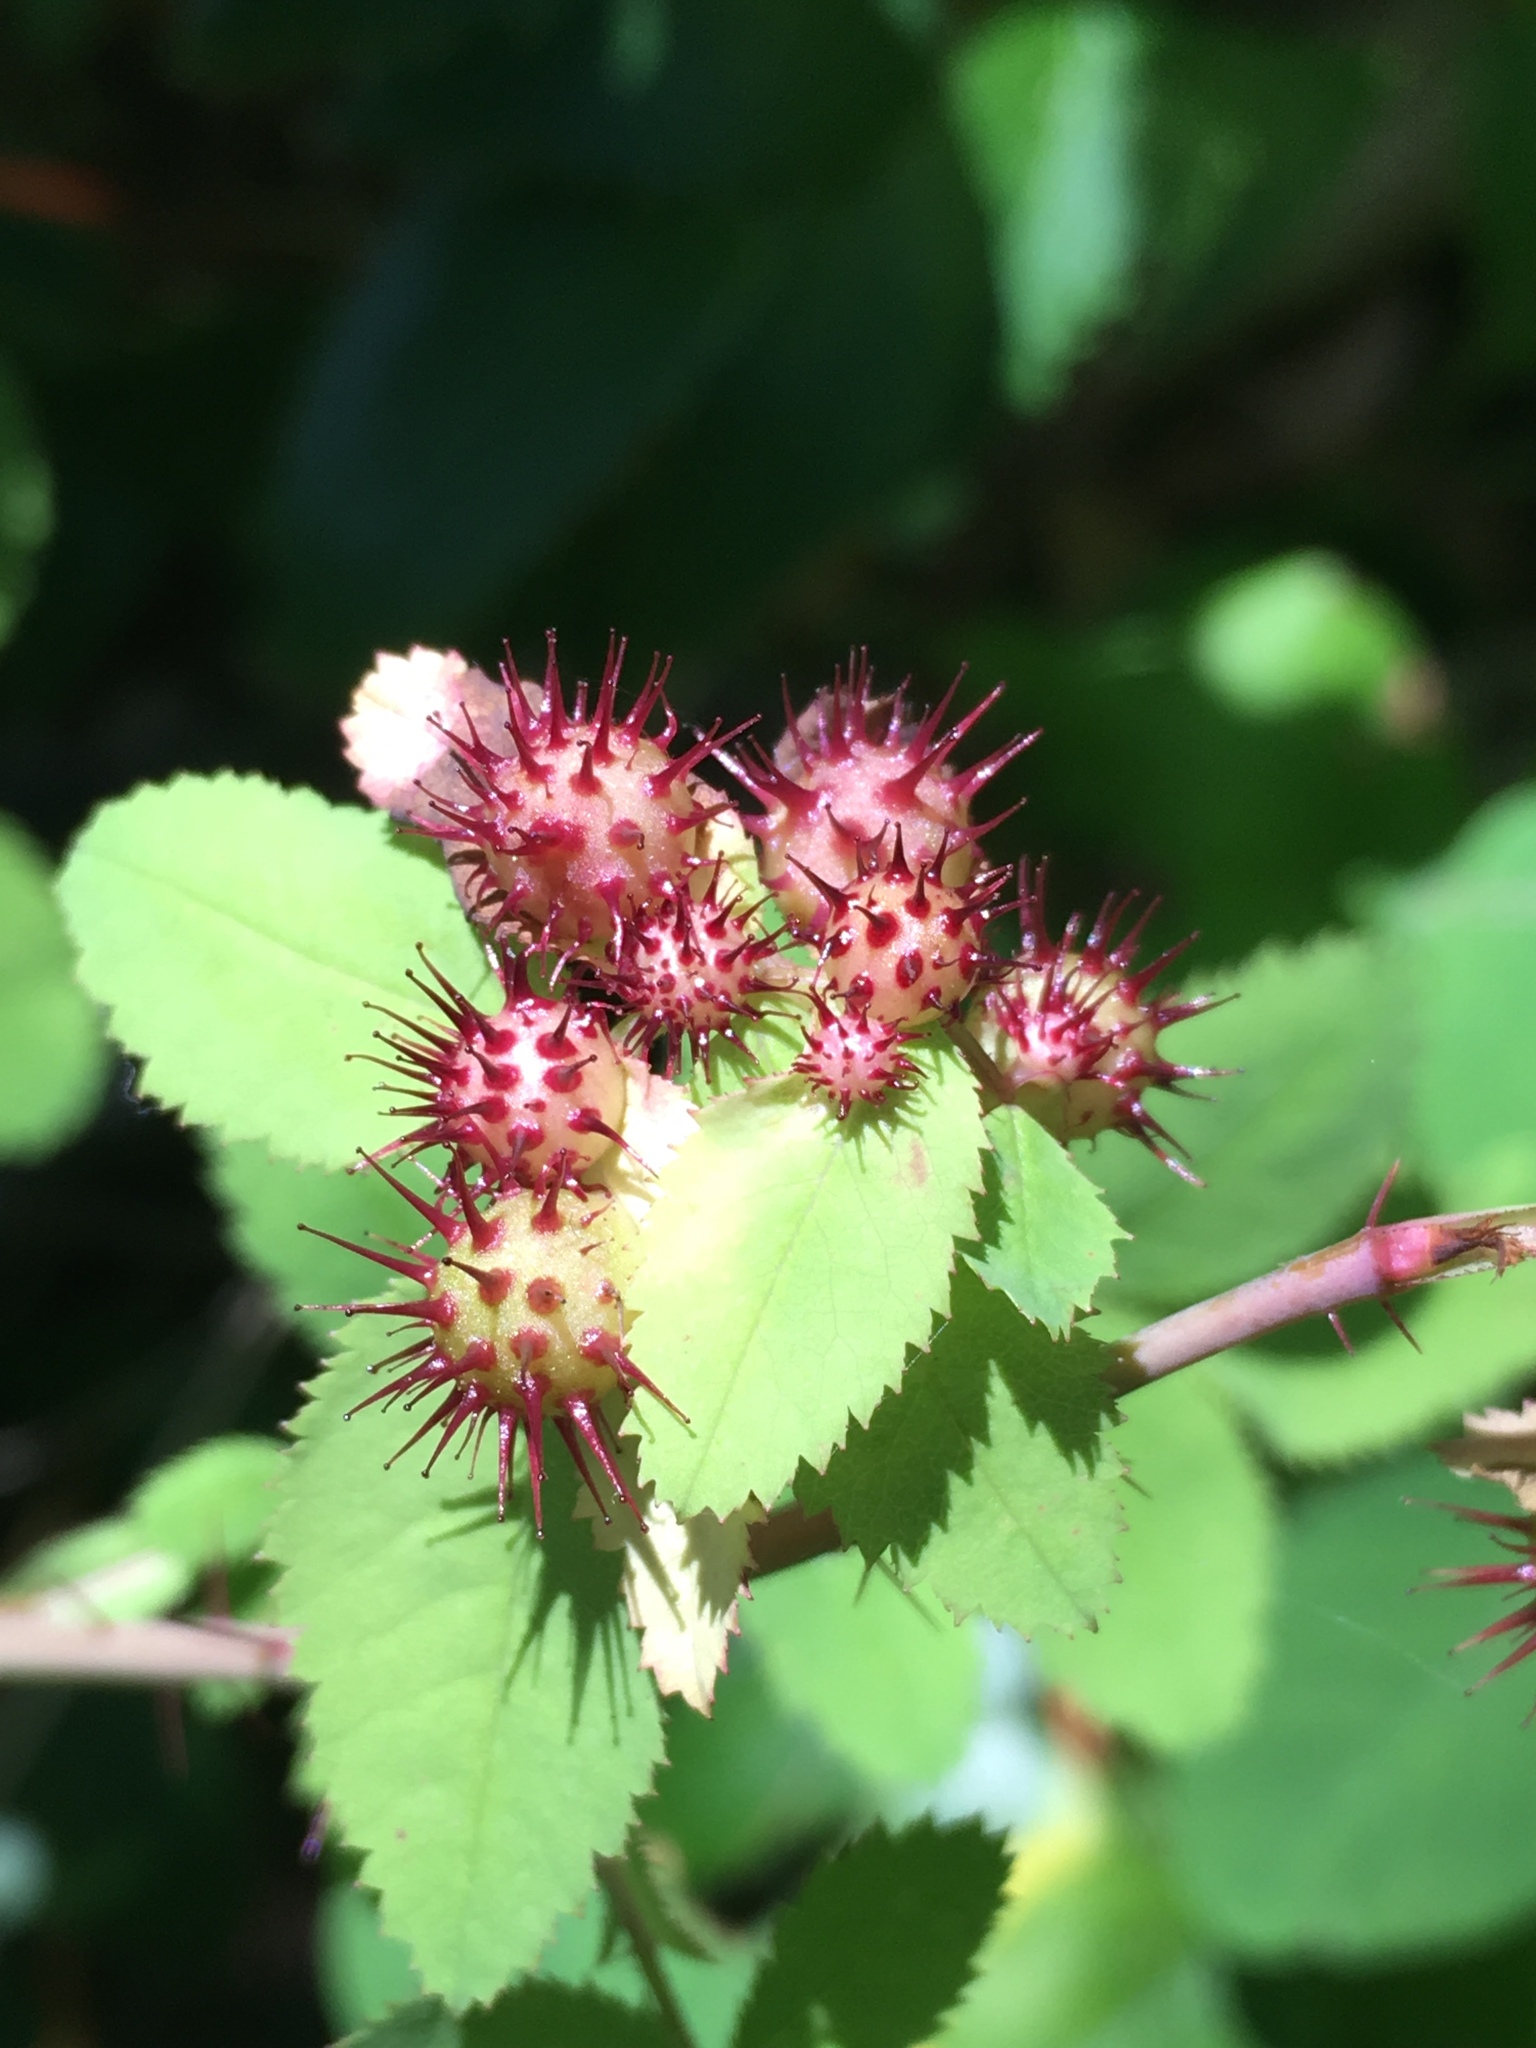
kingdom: Animalia
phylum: Arthropoda
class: Insecta
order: Hymenoptera
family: Cynipidae
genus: Diplolepis
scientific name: Diplolepis polita
